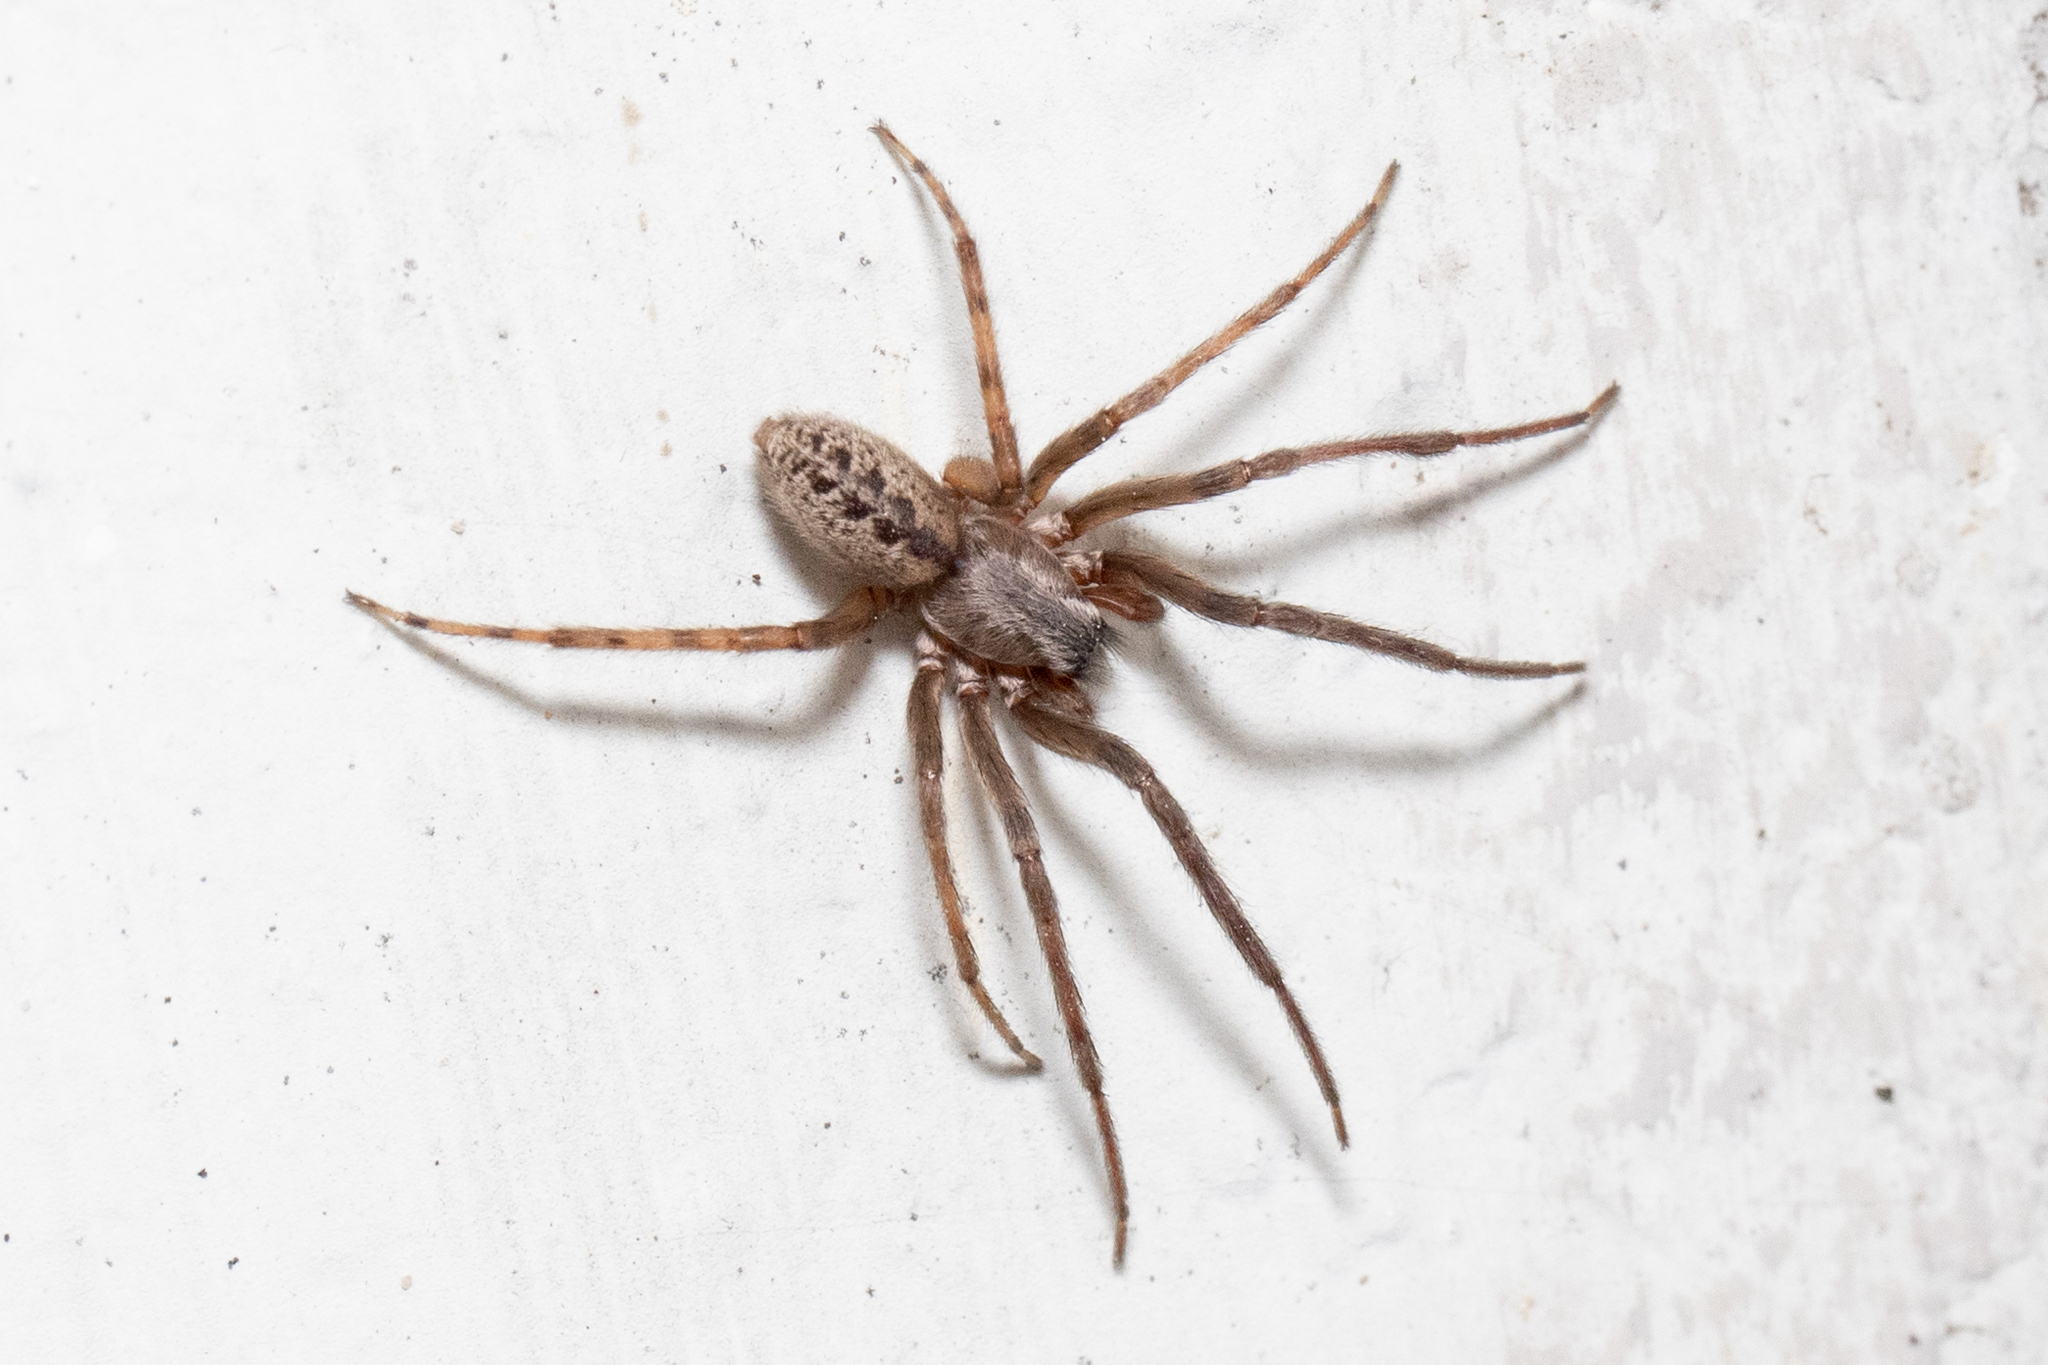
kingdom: Animalia
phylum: Arthropoda
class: Arachnida
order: Araneae
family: Segestriidae
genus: Segestria
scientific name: Segestria bavarica
